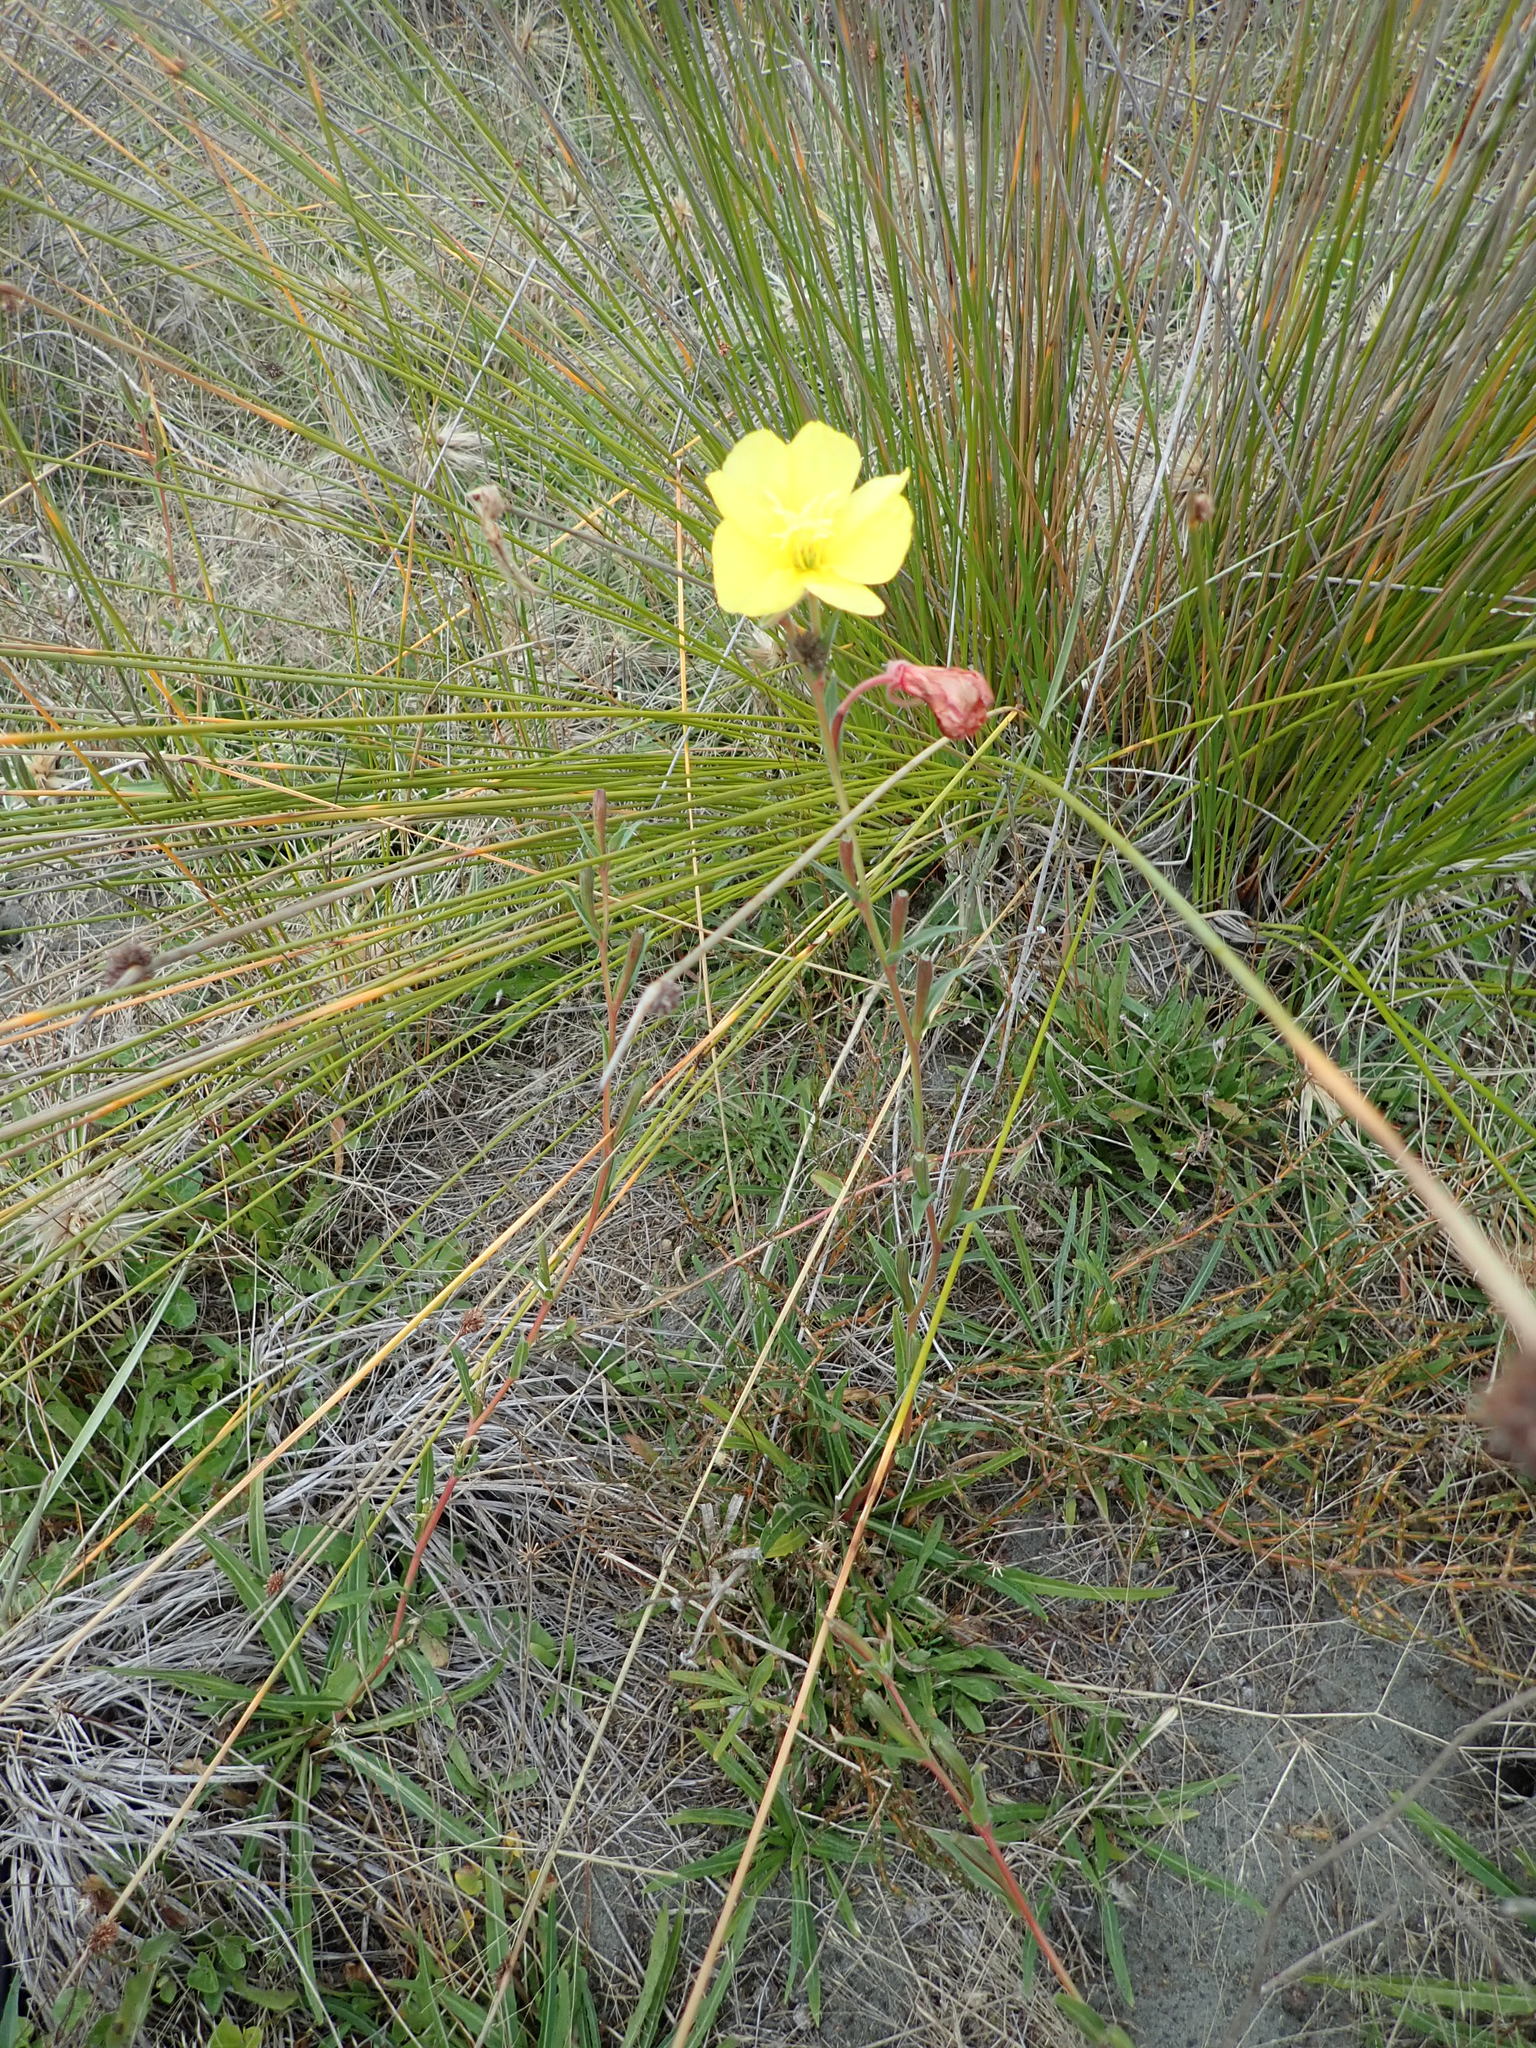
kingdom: Plantae
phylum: Tracheophyta
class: Magnoliopsida
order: Myrtales
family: Onagraceae
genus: Oenothera
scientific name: Oenothera stricta
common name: Fragrant evening-primrose
